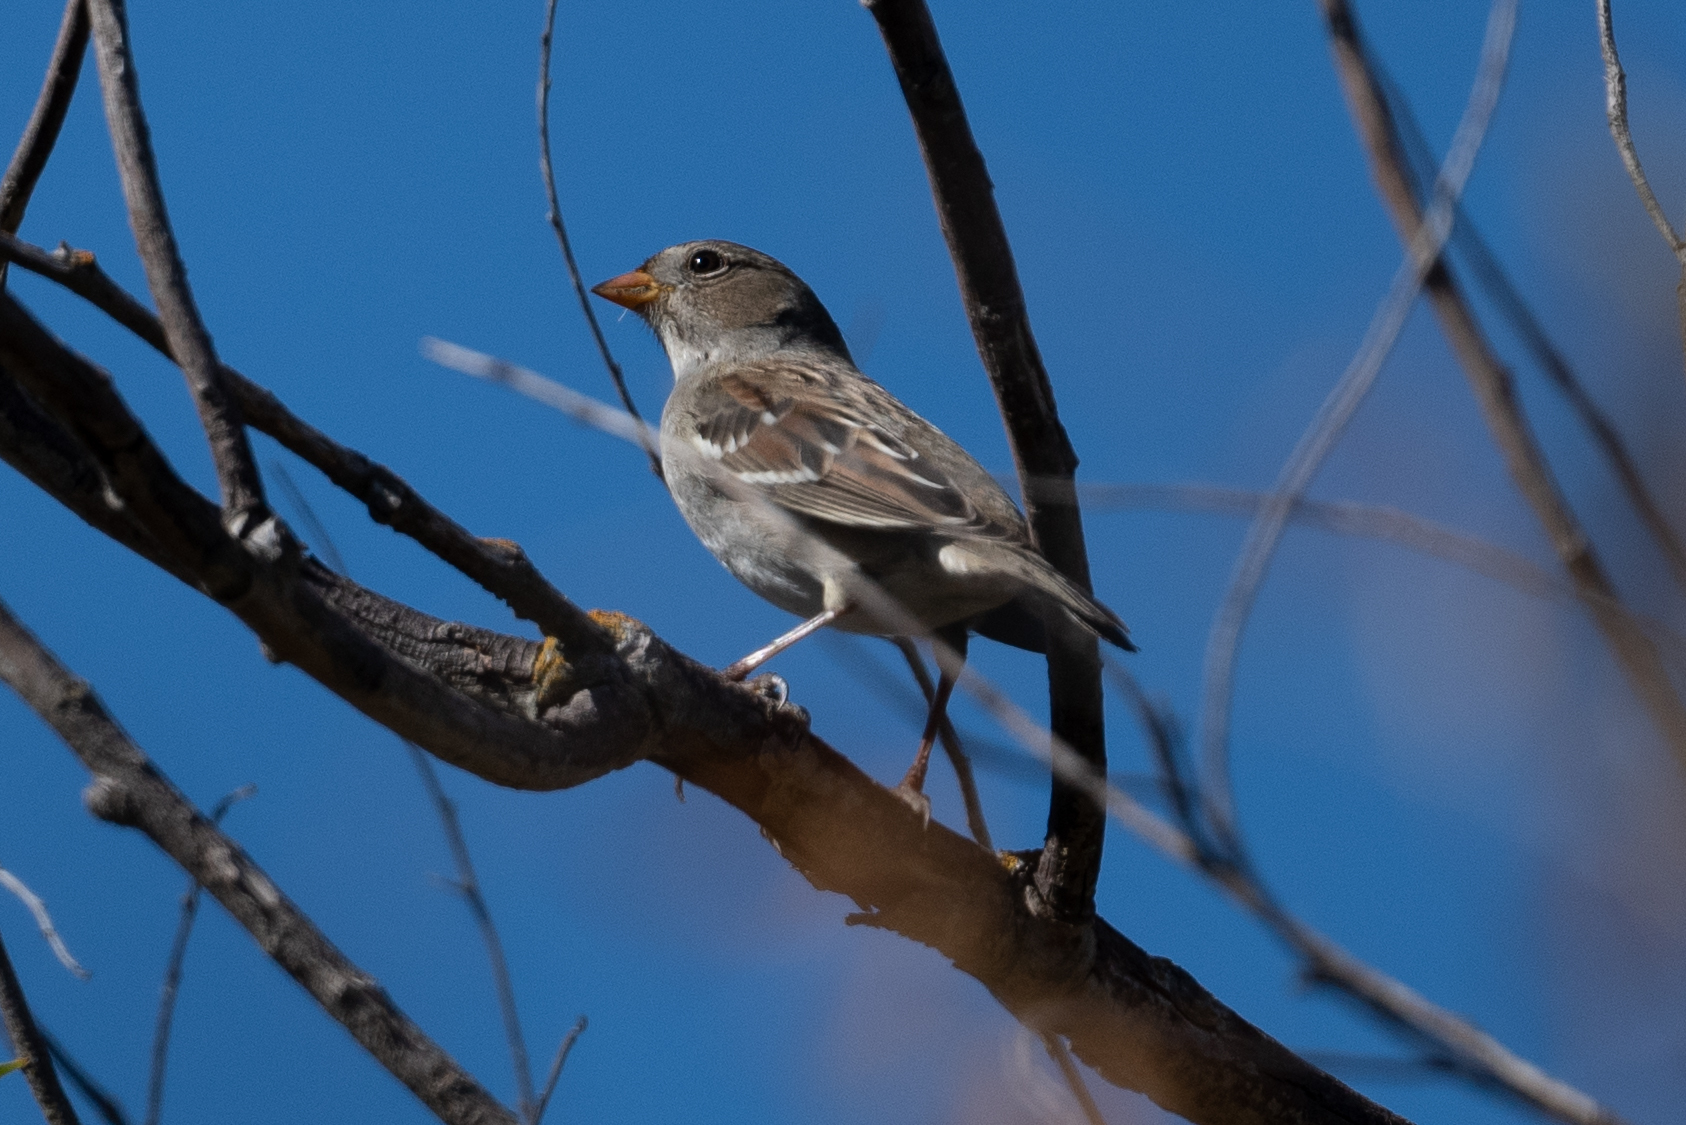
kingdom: Animalia
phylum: Chordata
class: Aves
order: Passeriformes
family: Passerellidae
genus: Zonotrichia
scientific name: Zonotrichia leucophrys
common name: White-crowned sparrow
